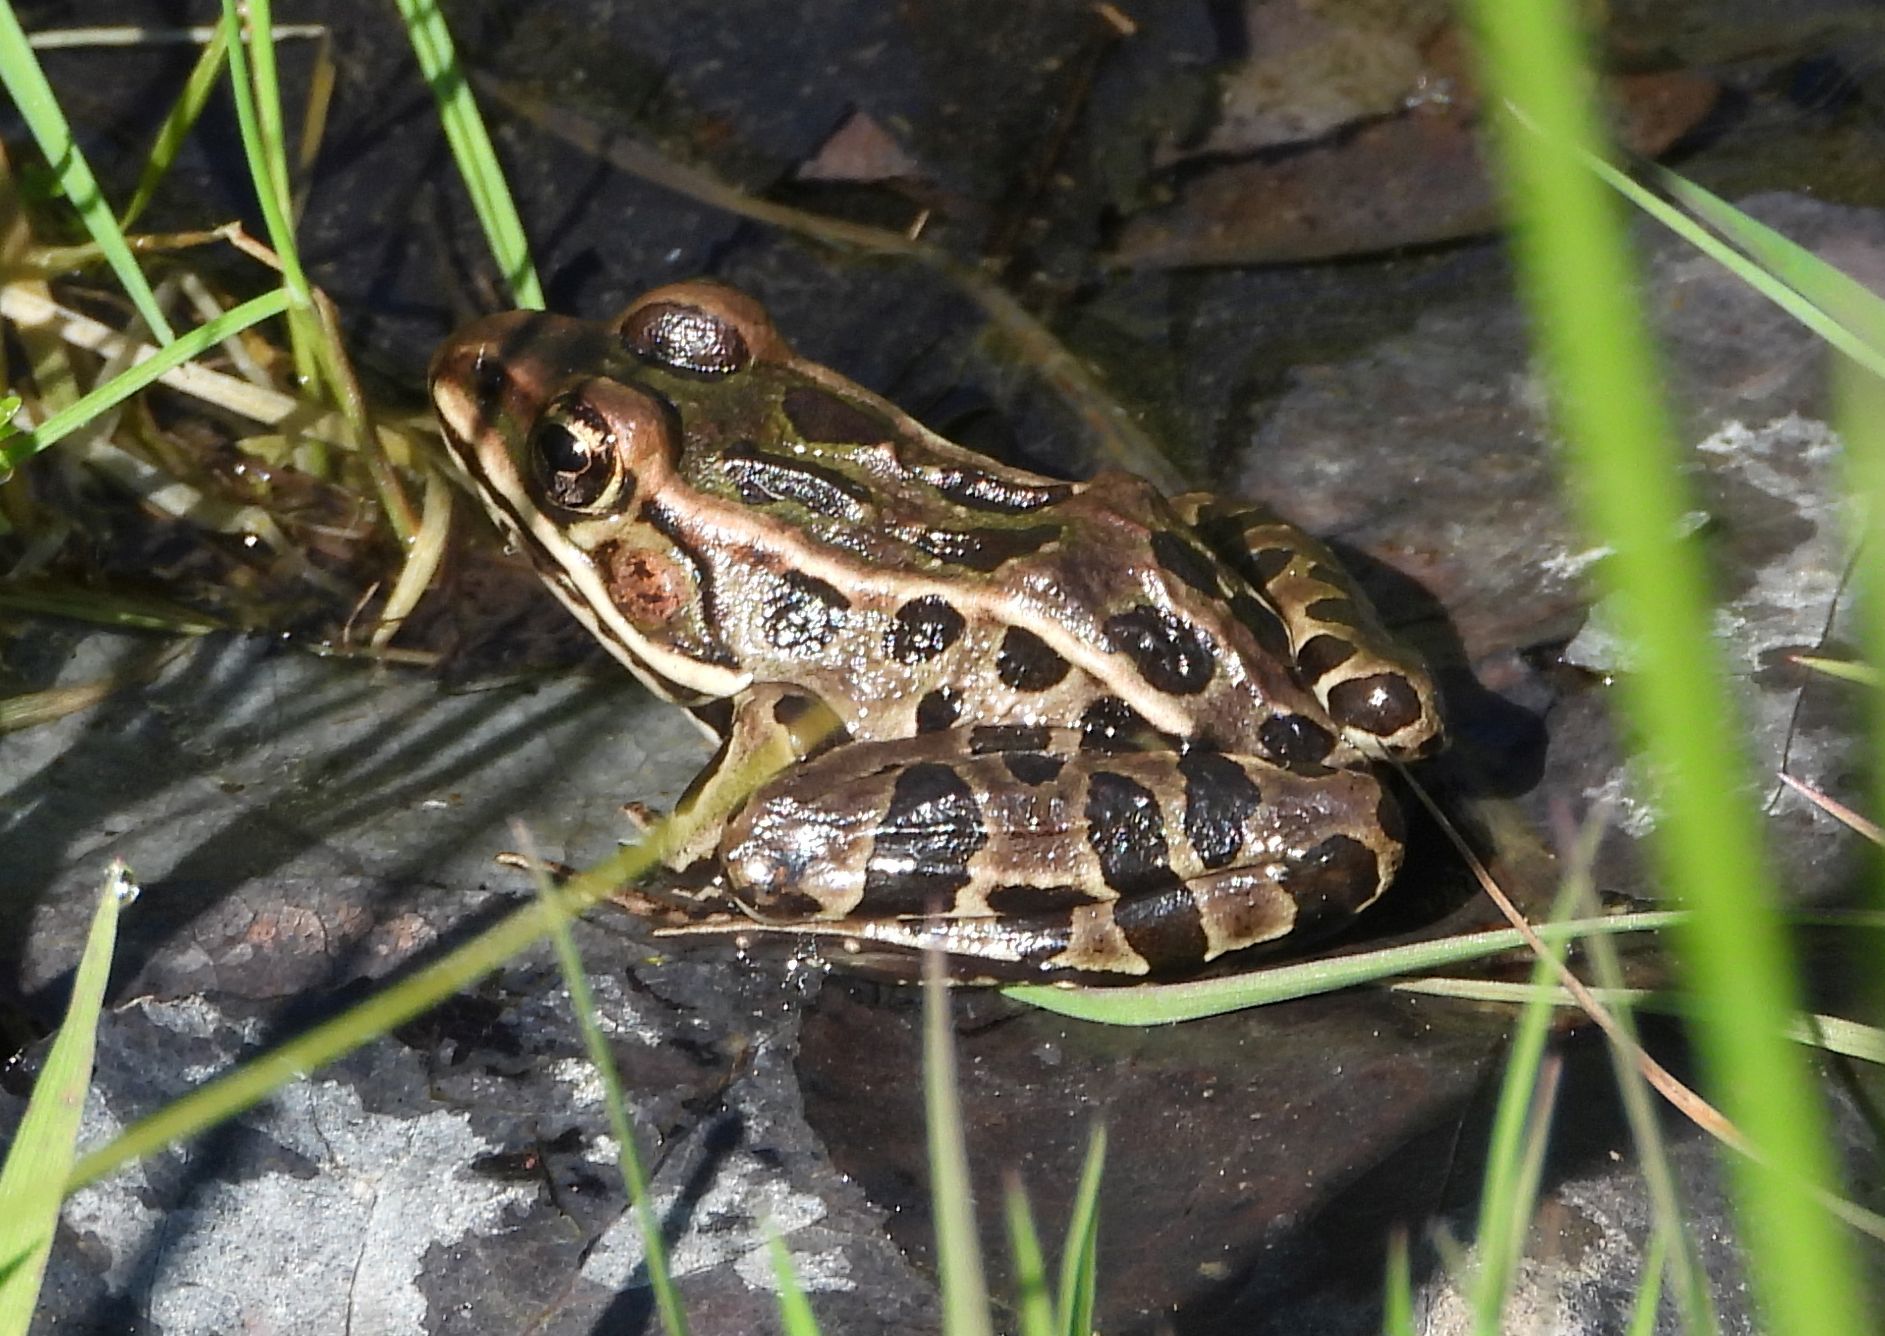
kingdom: Animalia
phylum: Chordata
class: Amphibia
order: Anura
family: Ranidae
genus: Lithobates
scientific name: Lithobates pipiens
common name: Northern leopard frog
